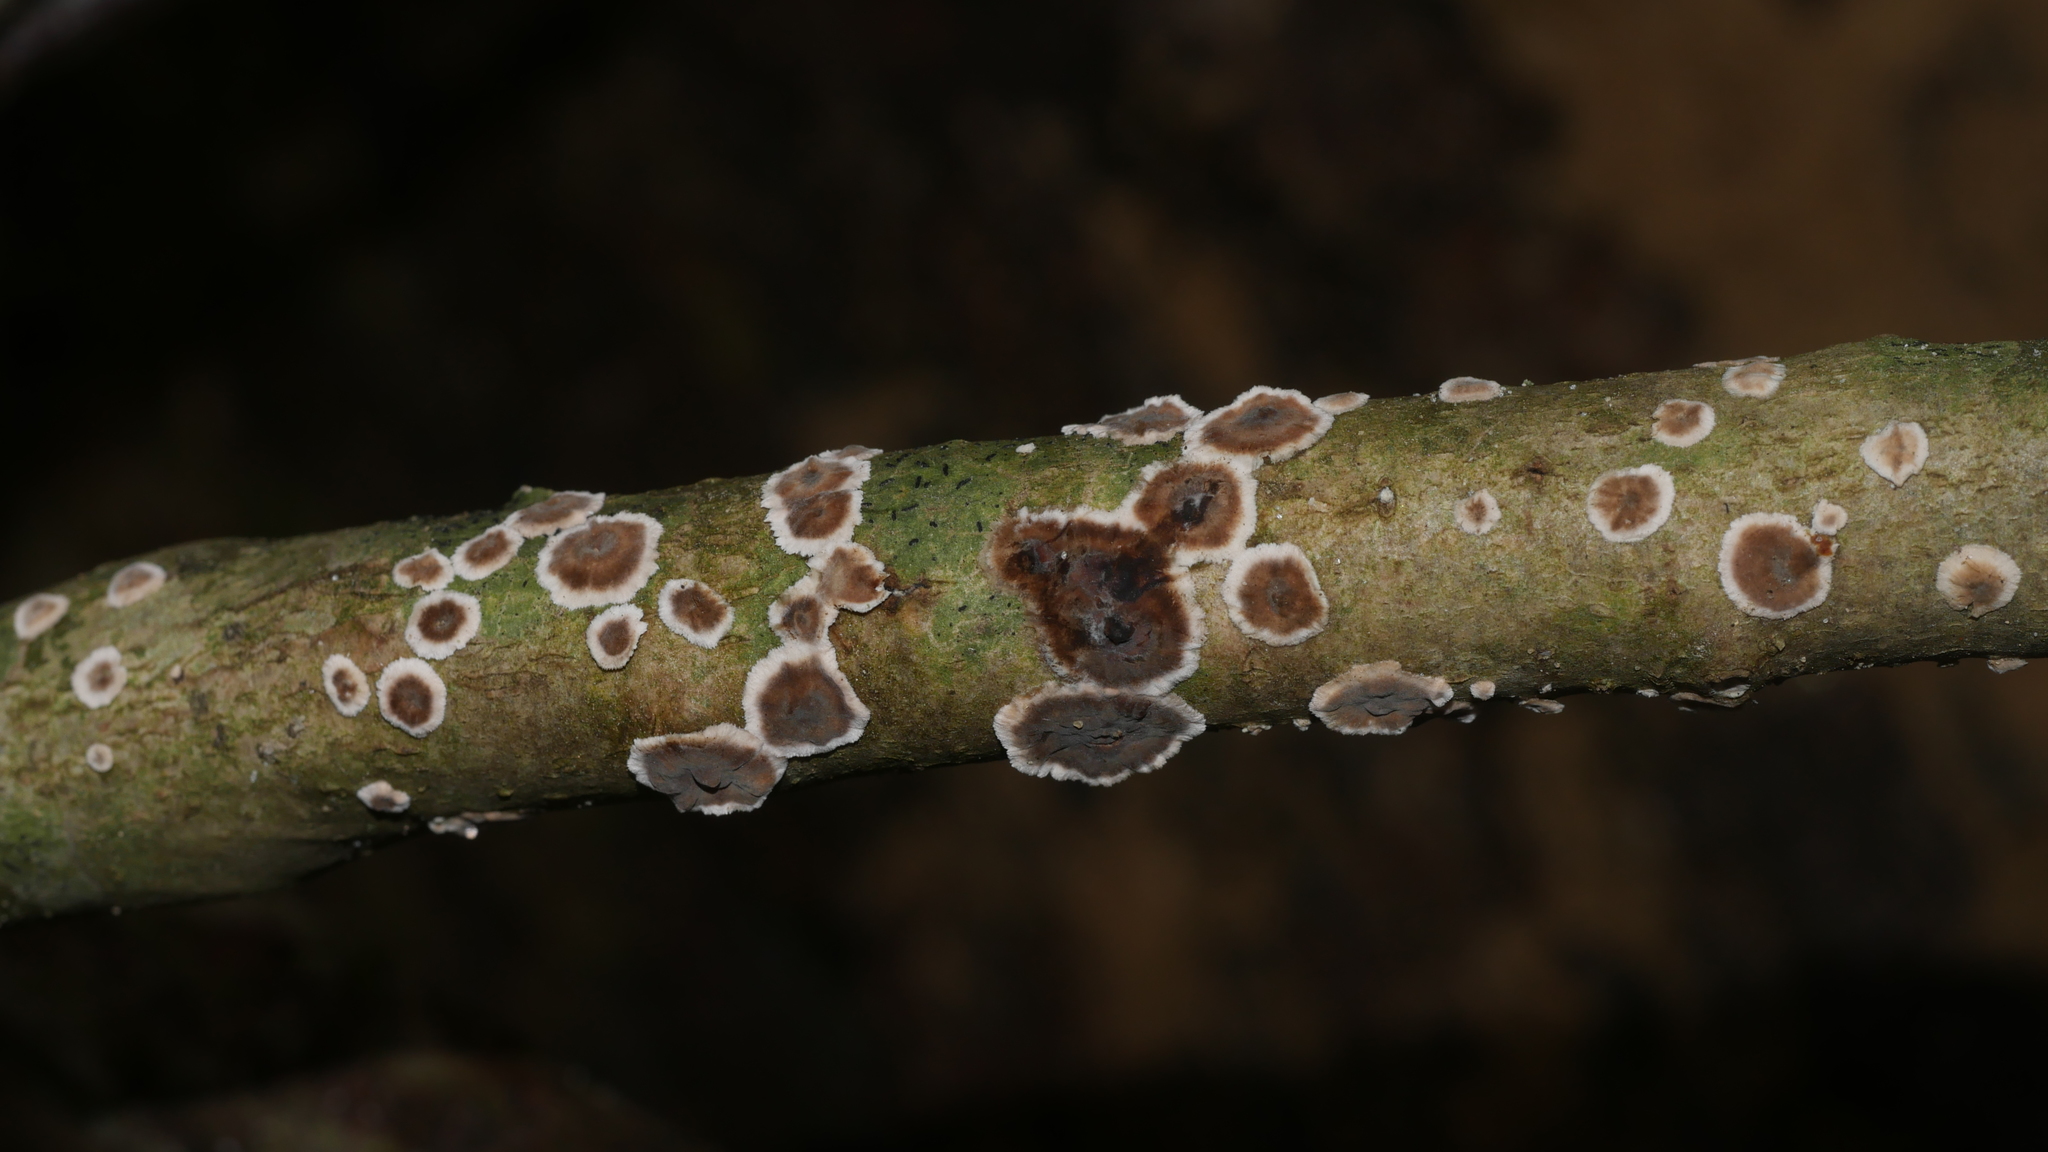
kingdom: Fungi
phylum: Basidiomycota
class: Agaricomycetes
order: Russulales
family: Peniophoraceae
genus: Peniophora
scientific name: Peniophora albobadia
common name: Giraffe spots
